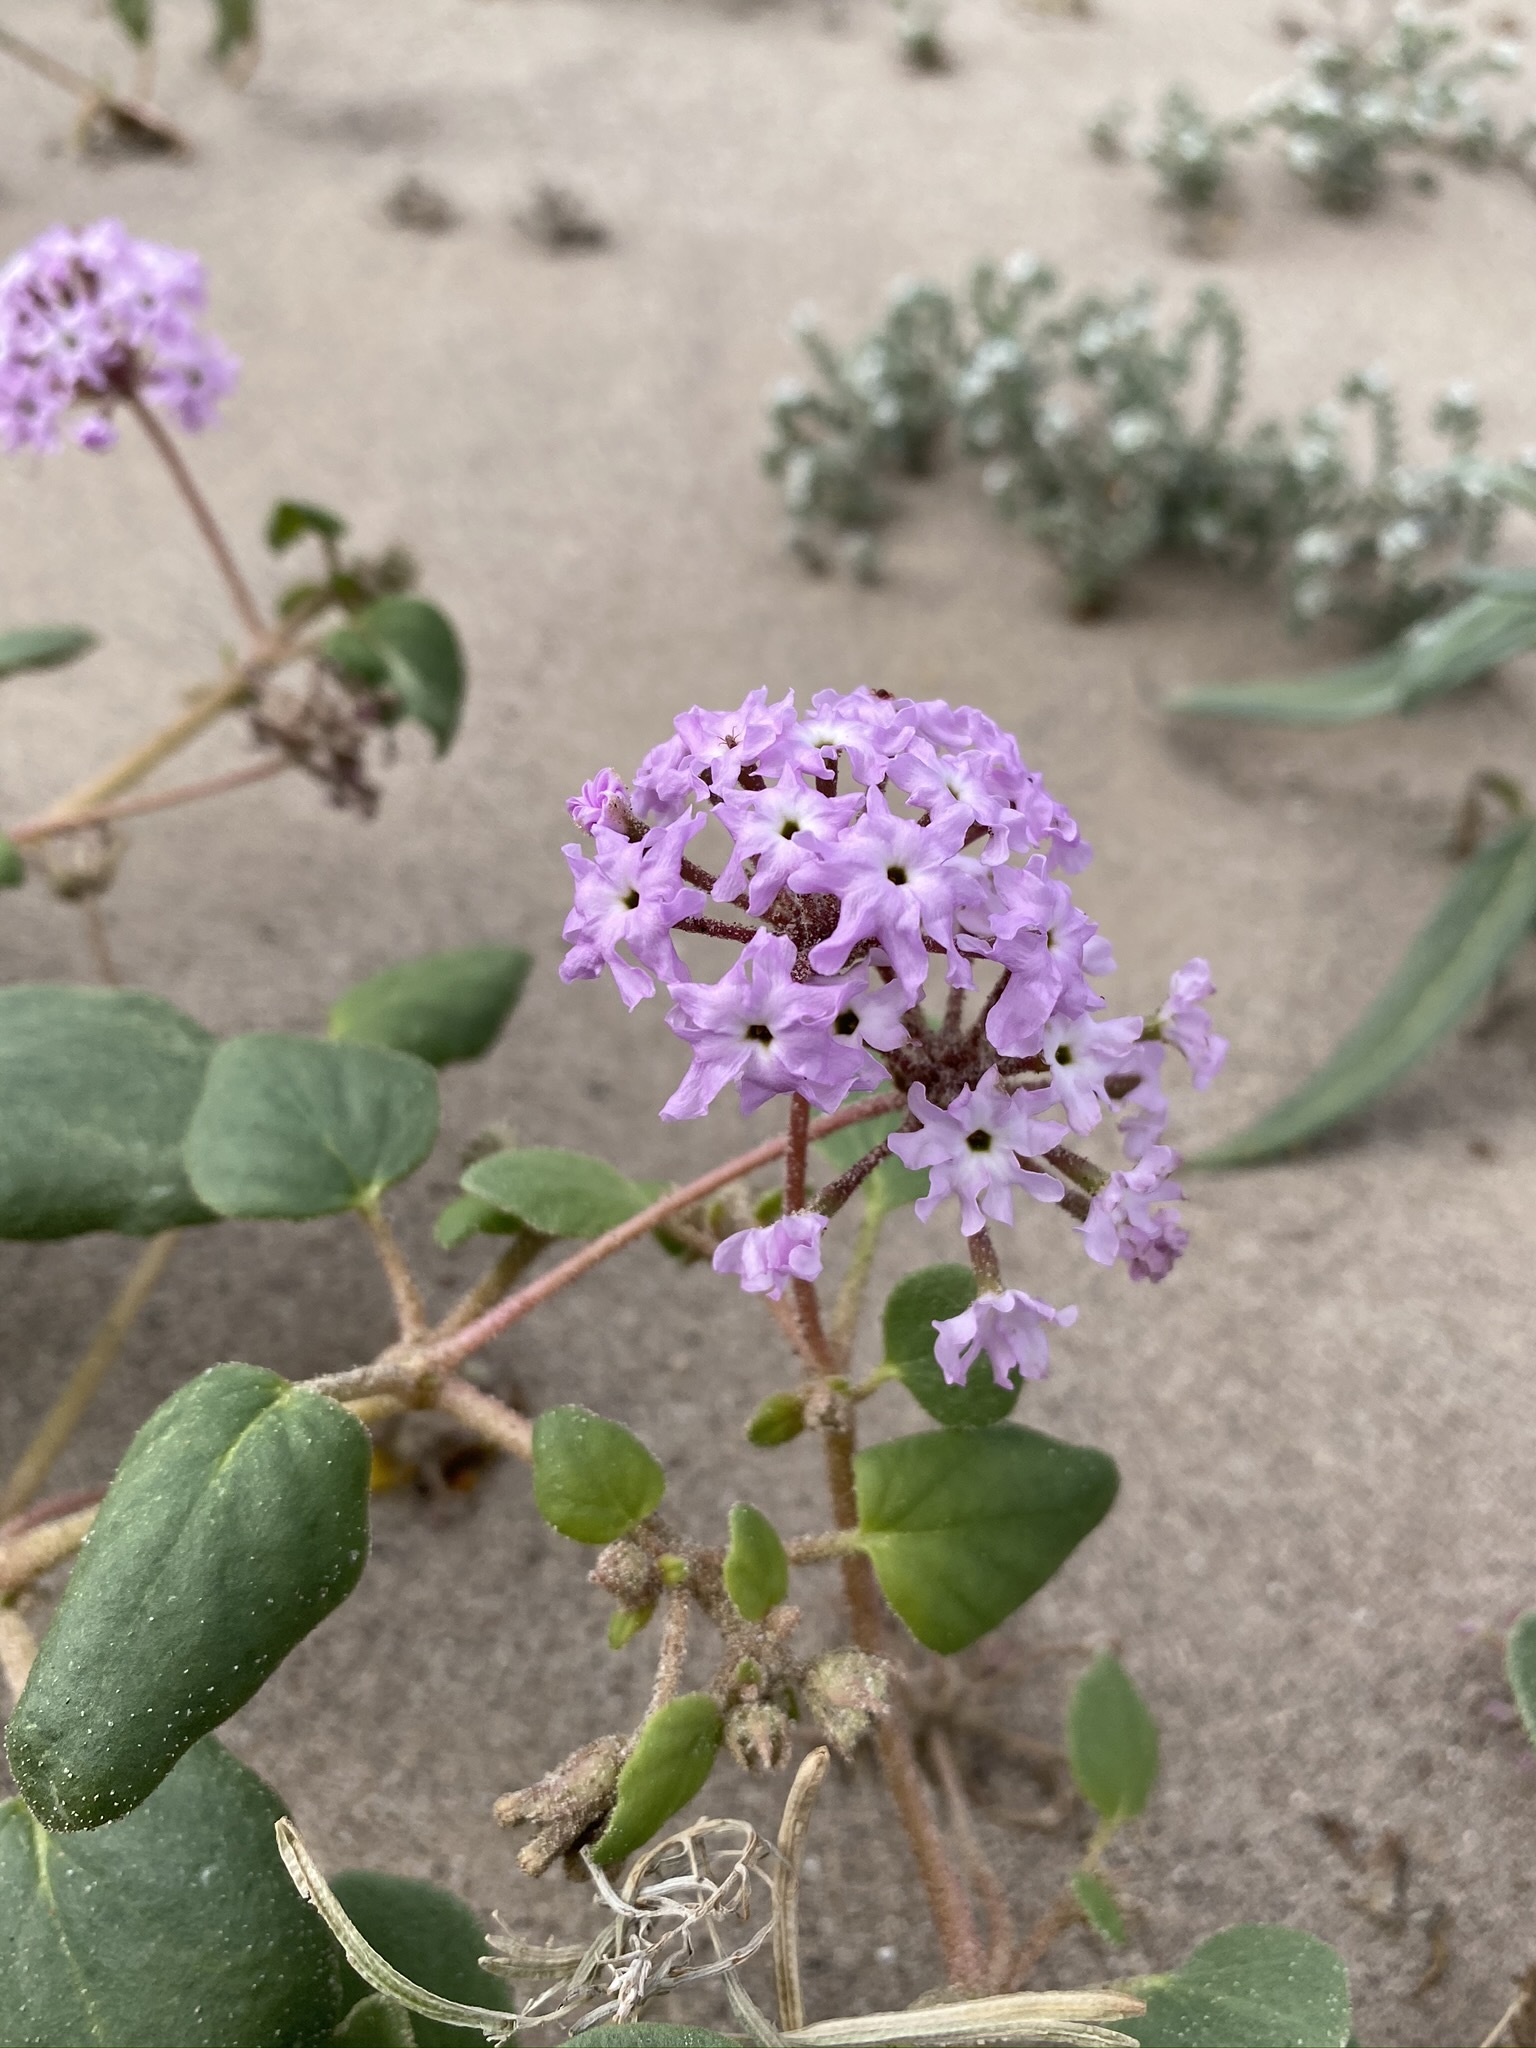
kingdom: Plantae
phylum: Tracheophyta
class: Magnoliopsida
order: Caryophyllales
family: Nyctaginaceae
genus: Abronia
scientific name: Abronia villosa
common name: Desert sand-verbena
